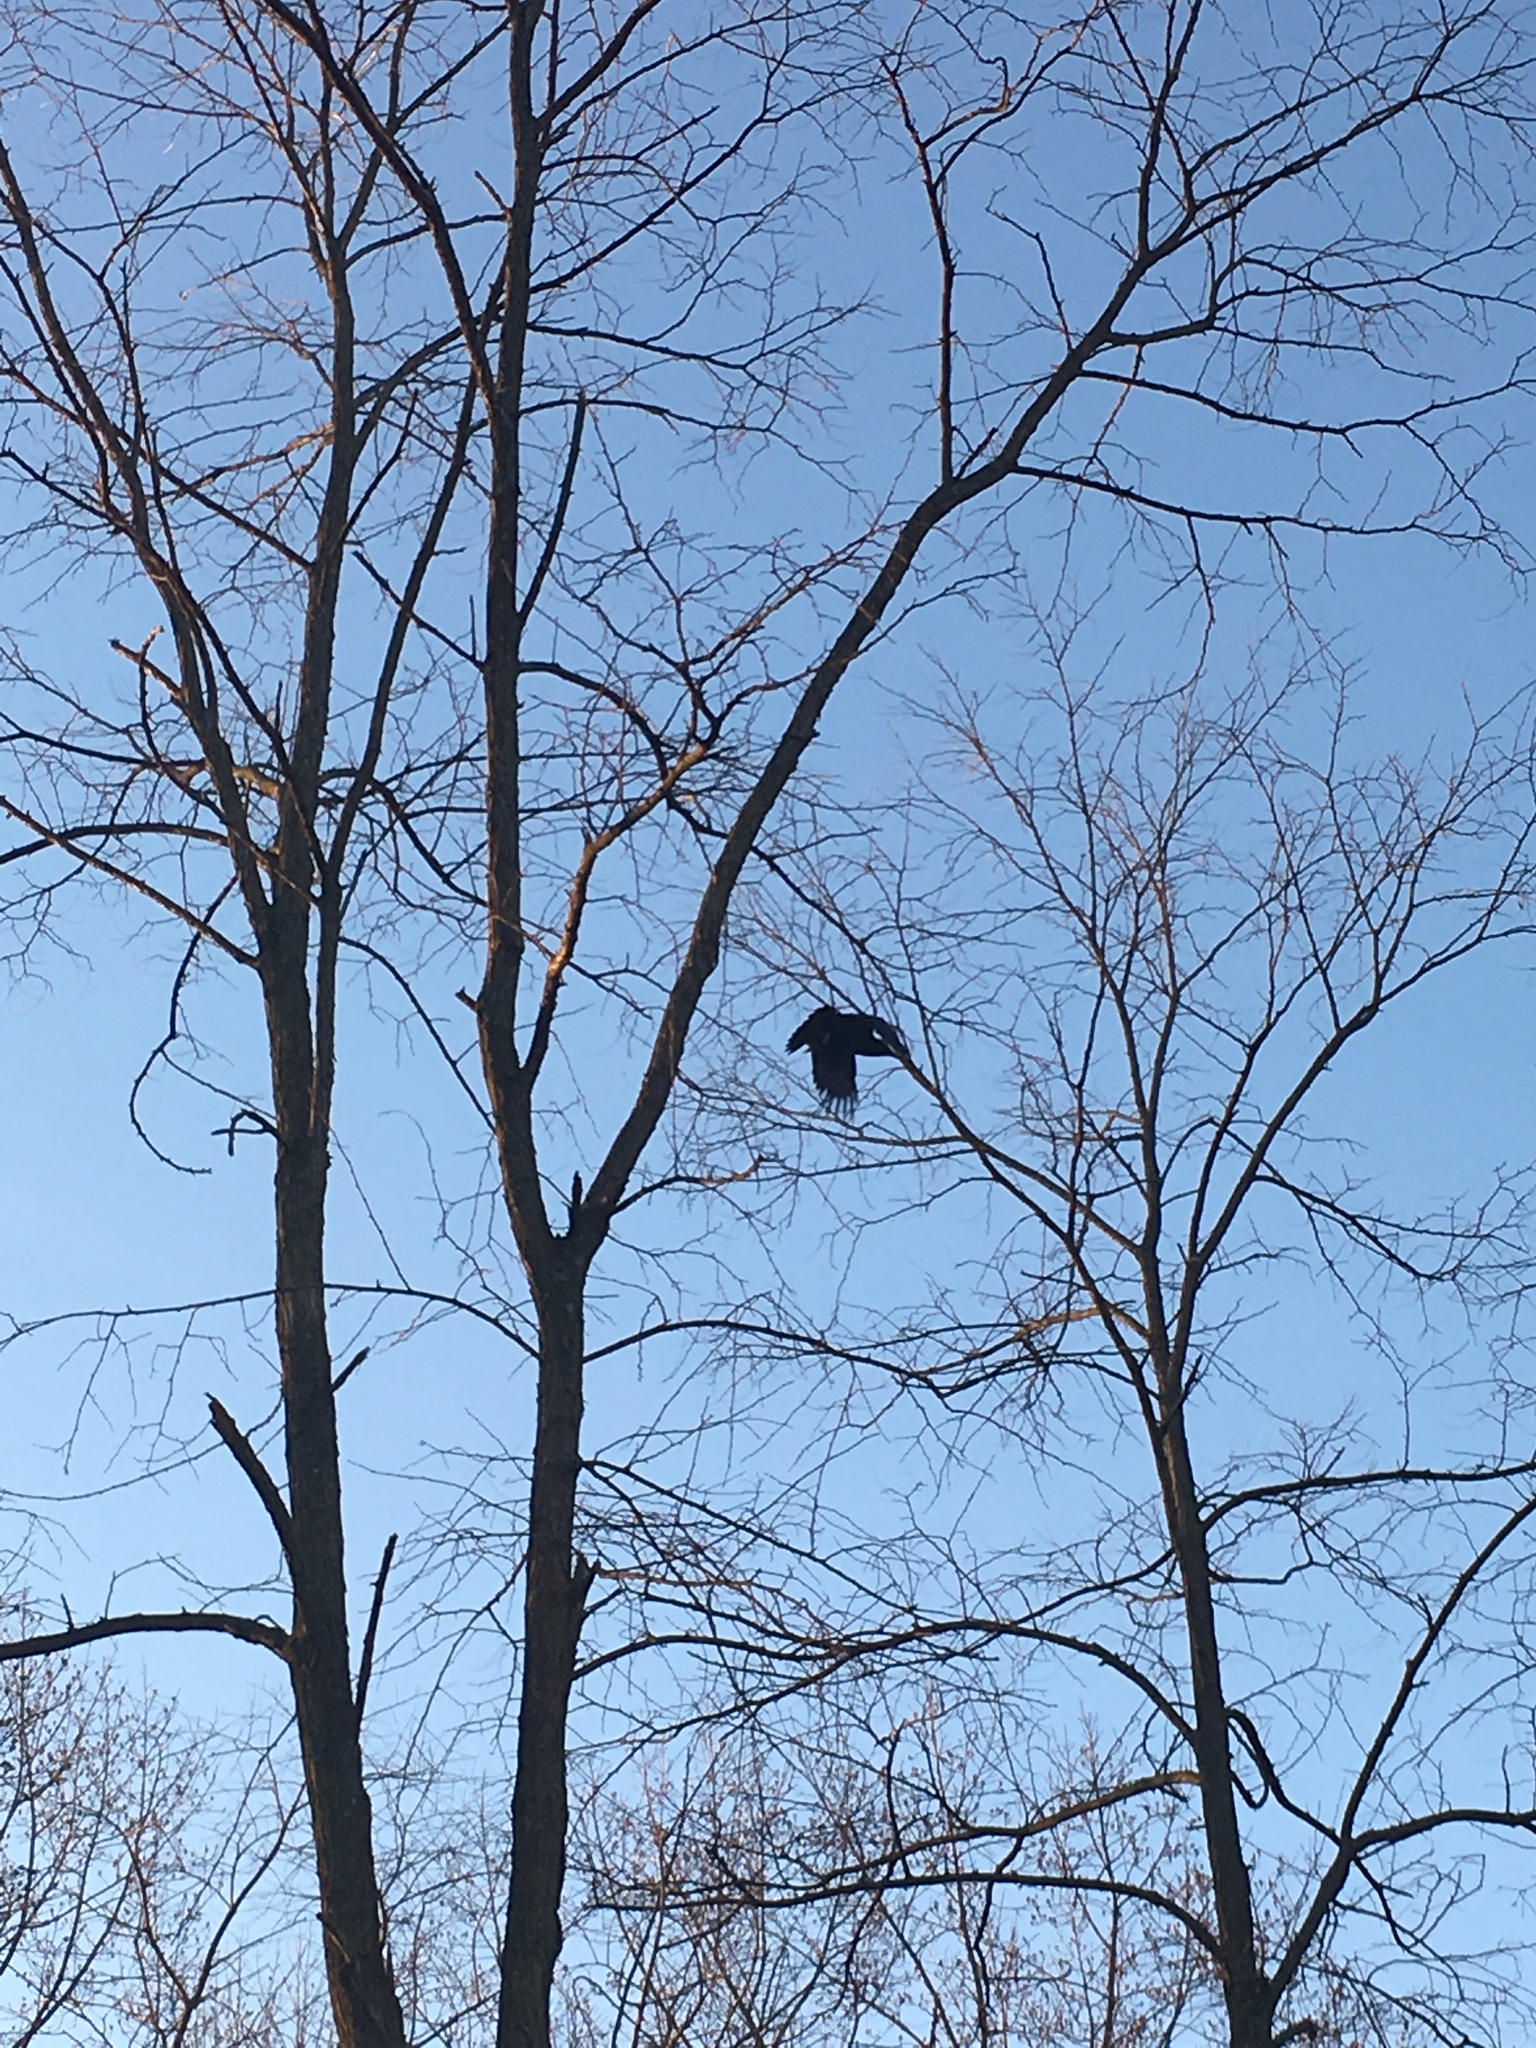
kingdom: Animalia
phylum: Chordata
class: Aves
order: Passeriformes
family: Corvidae
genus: Corvus
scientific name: Corvus brachyrhynchos
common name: American crow
